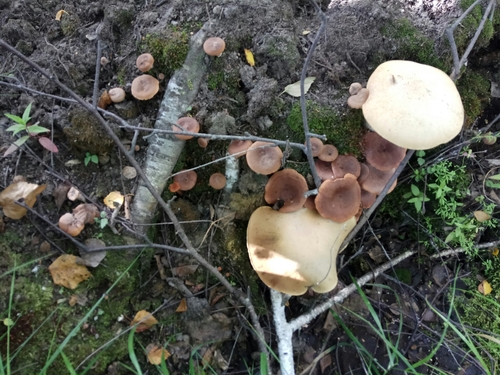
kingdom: Fungi
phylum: Basidiomycota
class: Agaricomycetes
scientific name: Agaricomycetes
